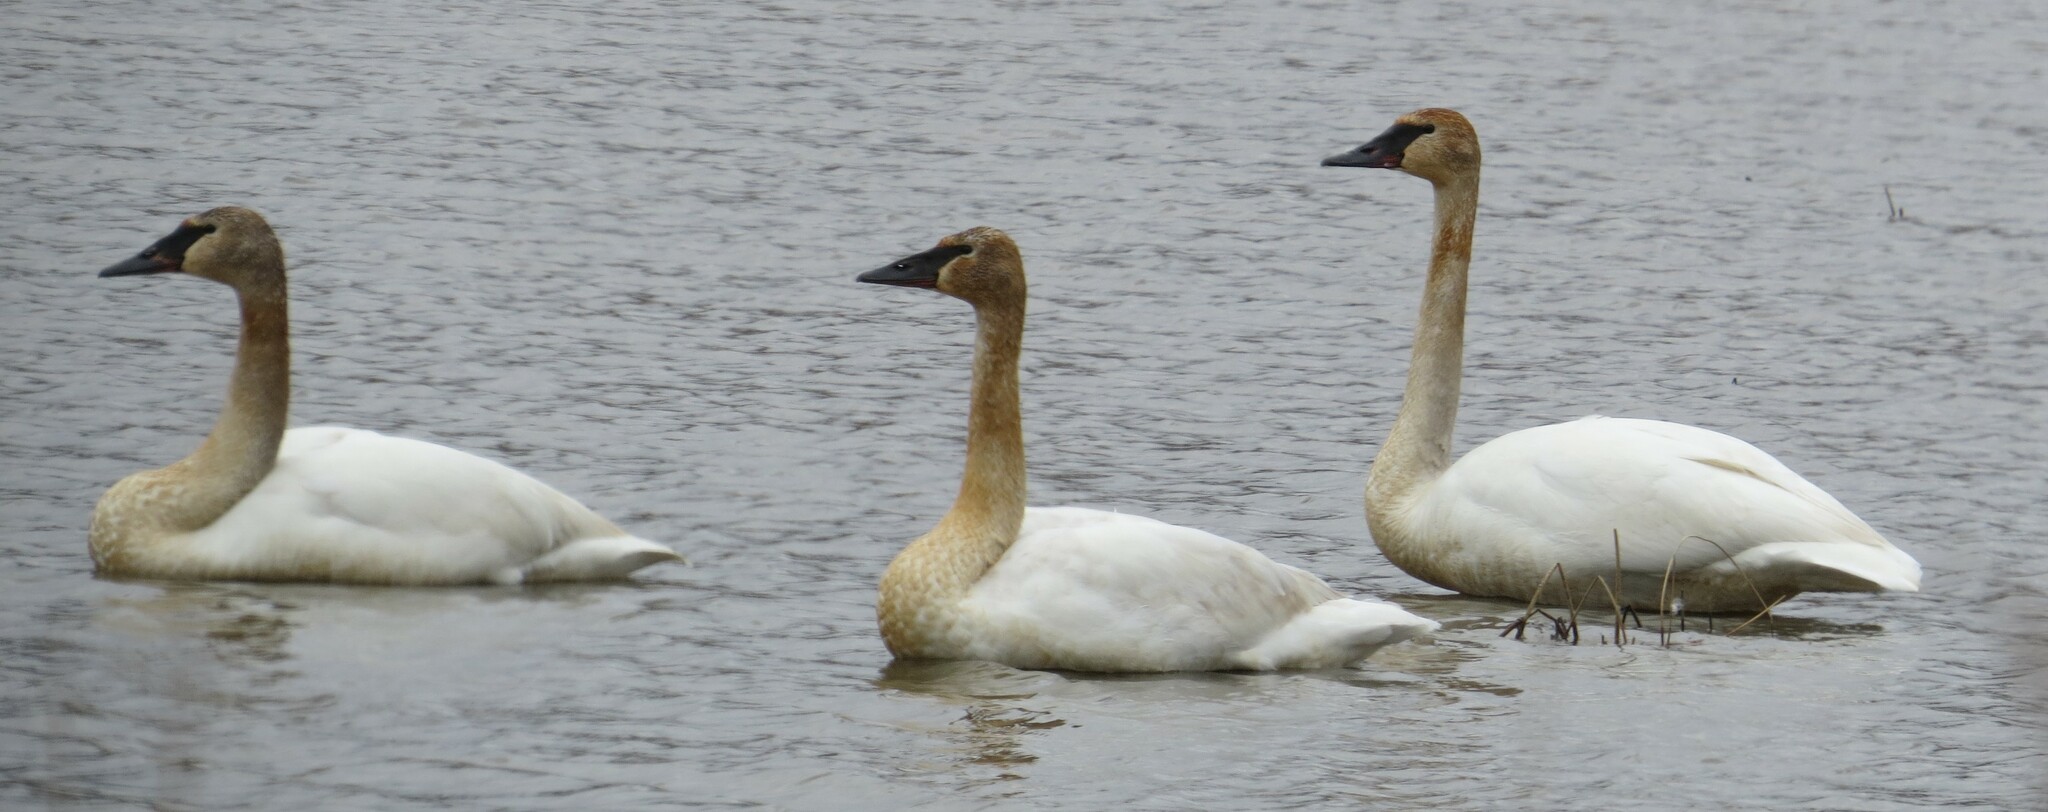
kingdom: Animalia
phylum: Chordata
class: Aves
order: Anseriformes
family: Anatidae
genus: Cygnus
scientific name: Cygnus buccinator
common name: Trumpeter swan
